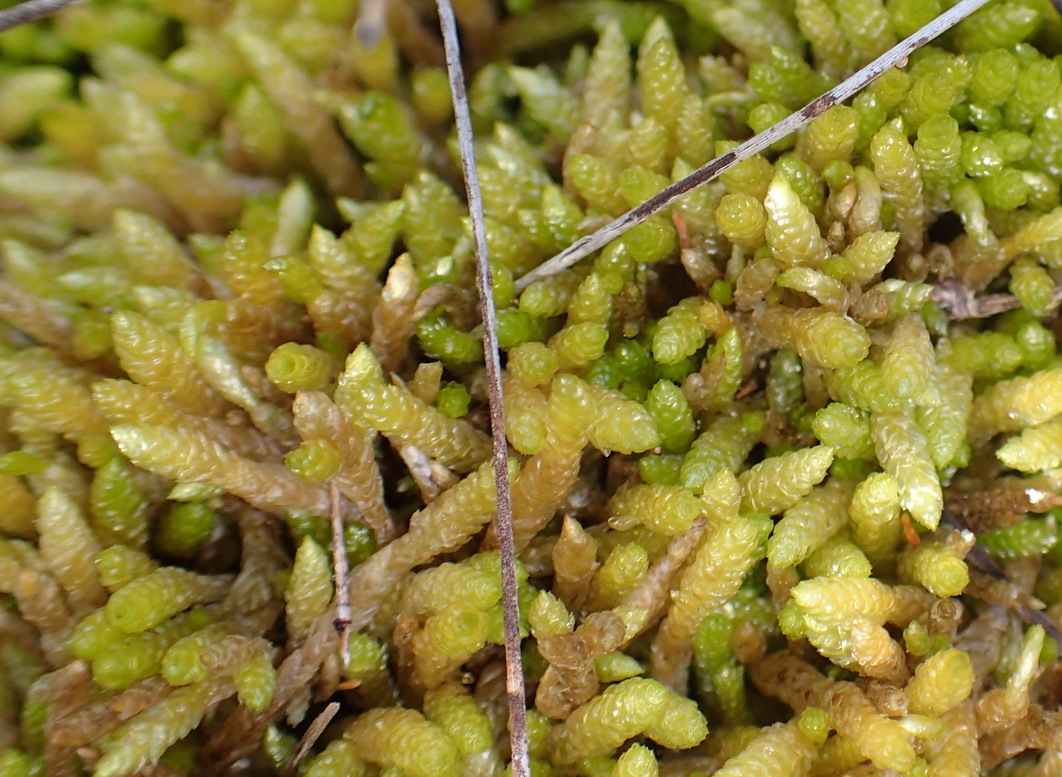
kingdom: Plantae
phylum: Bryophyta
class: Bryopsida
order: Hypnales
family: Catagoniaceae
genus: Catagonium
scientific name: Catagonium nitens
